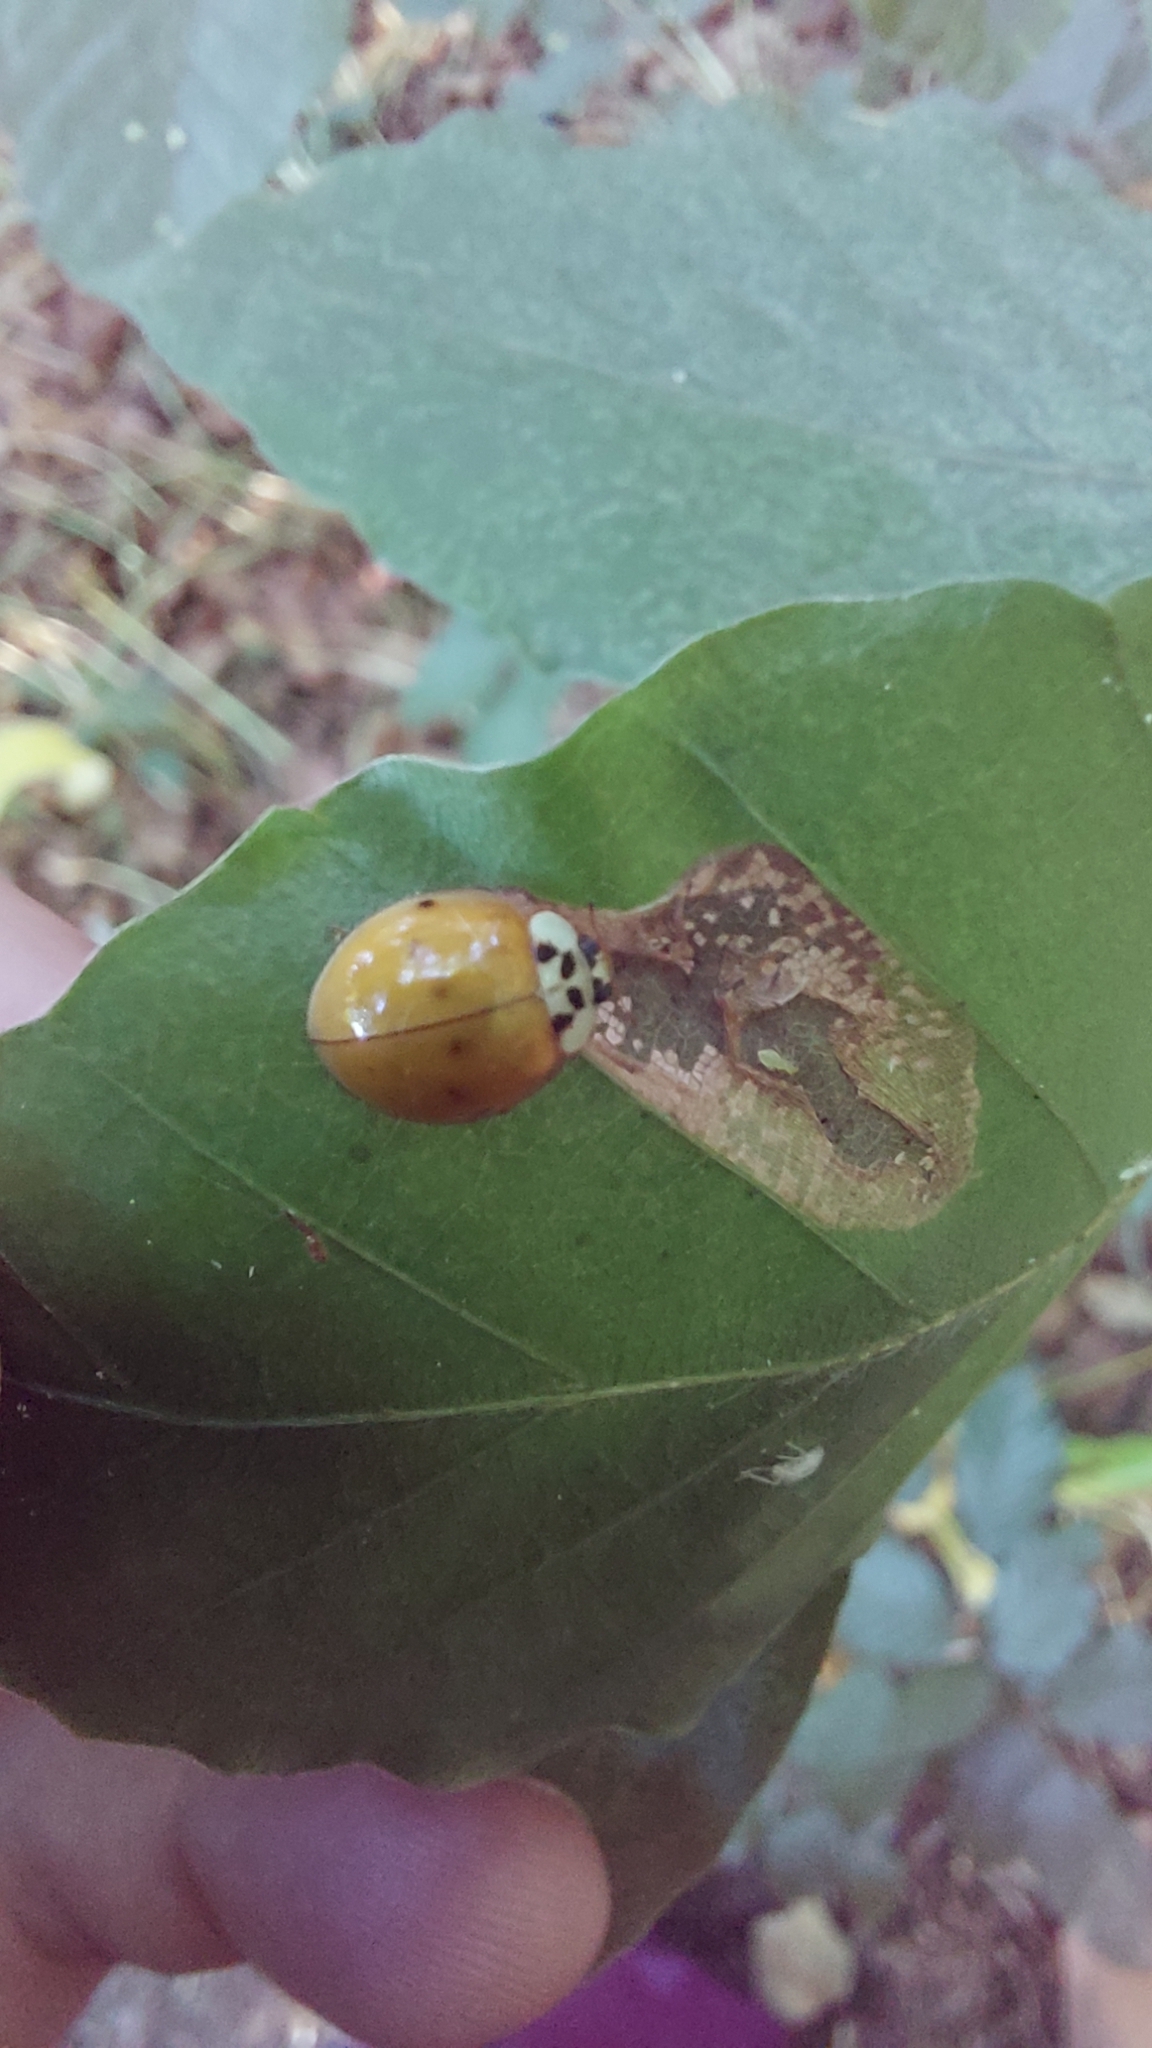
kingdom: Animalia
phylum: Arthropoda
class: Insecta
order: Coleoptera
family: Coccinellidae
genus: Harmonia
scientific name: Harmonia axyridis
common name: Harlequin ladybird
